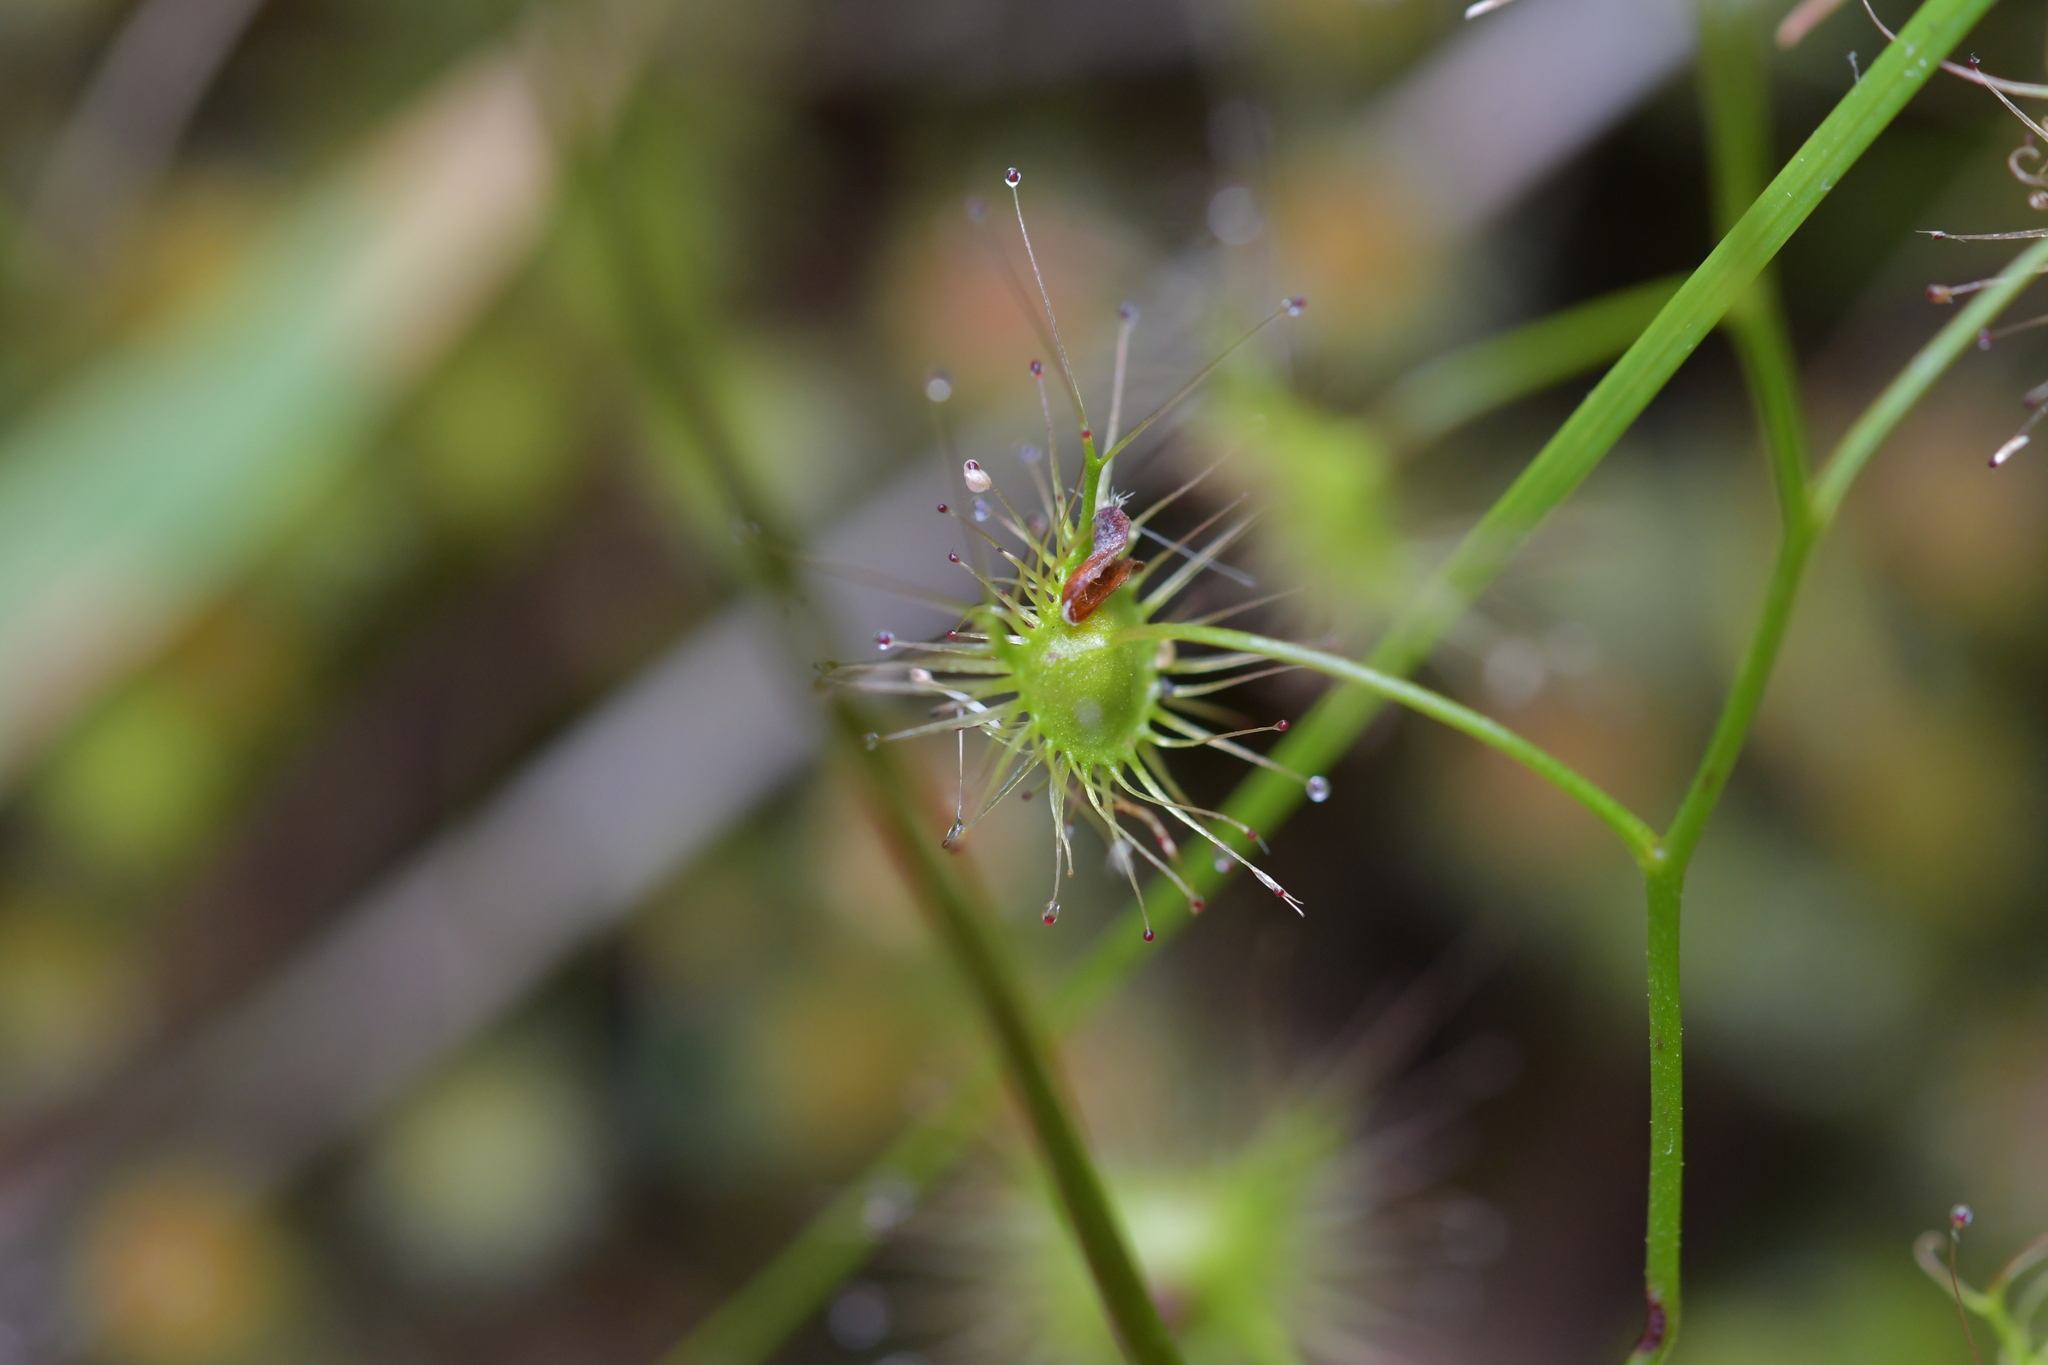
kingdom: Plantae
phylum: Tracheophyta
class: Magnoliopsida
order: Caryophyllales
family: Droseraceae
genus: Drosera
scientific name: Drosera peltata
